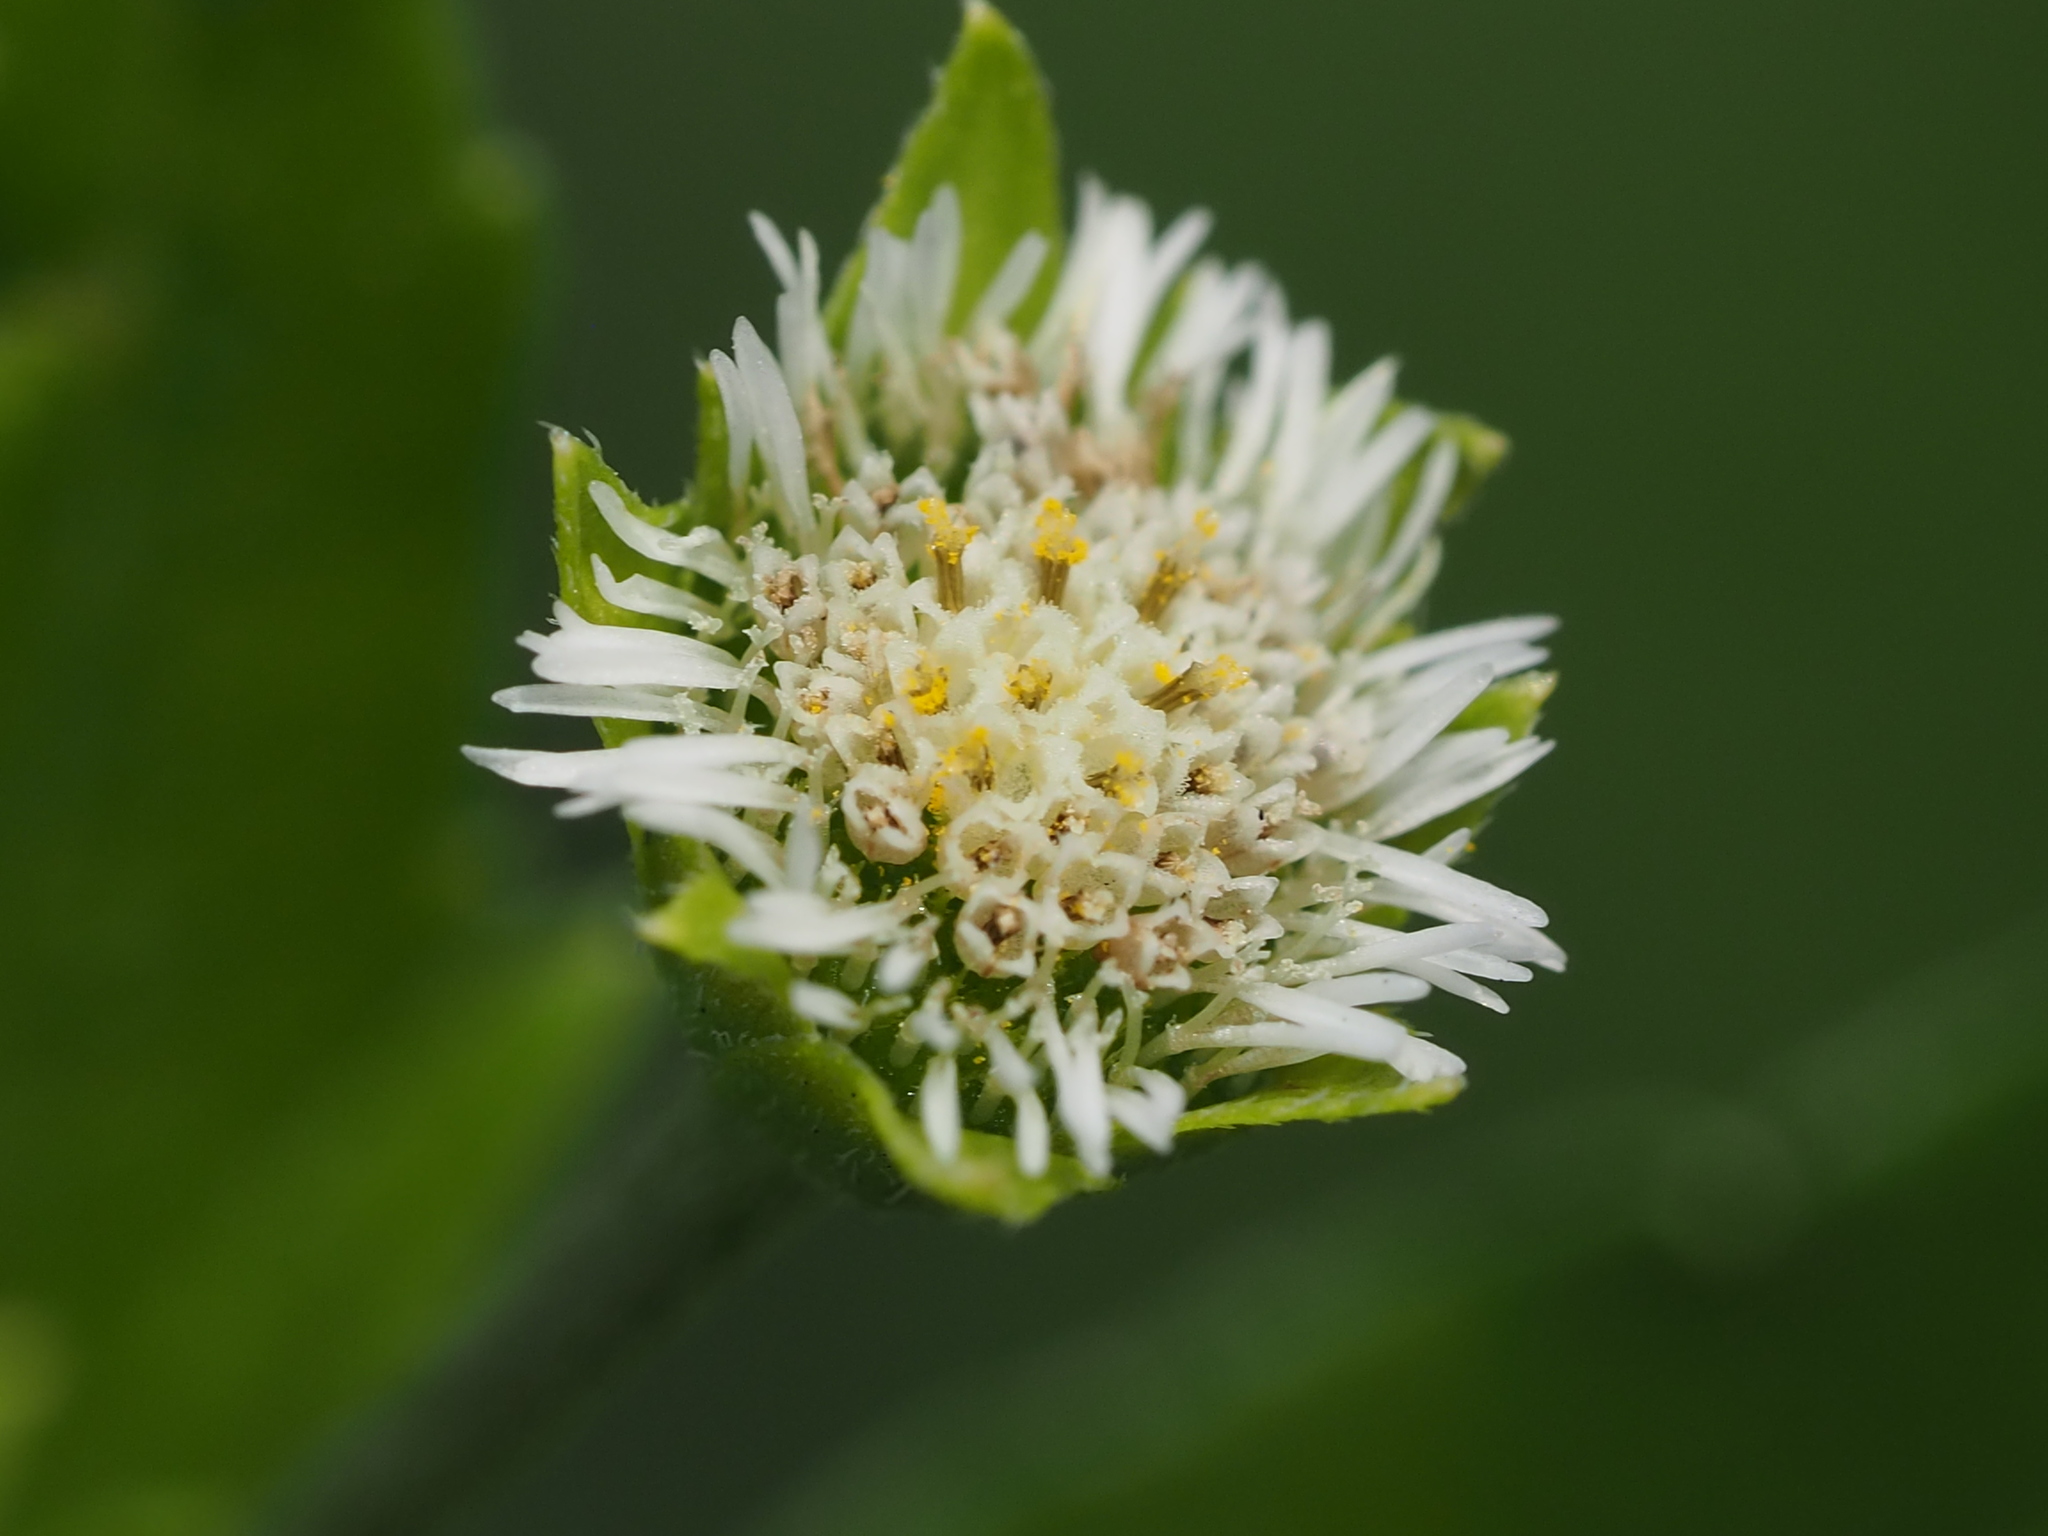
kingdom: Plantae
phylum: Tracheophyta
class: Magnoliopsida
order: Asterales
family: Asteraceae
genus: Eclipta
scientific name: Eclipta prostrata
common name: False daisy
